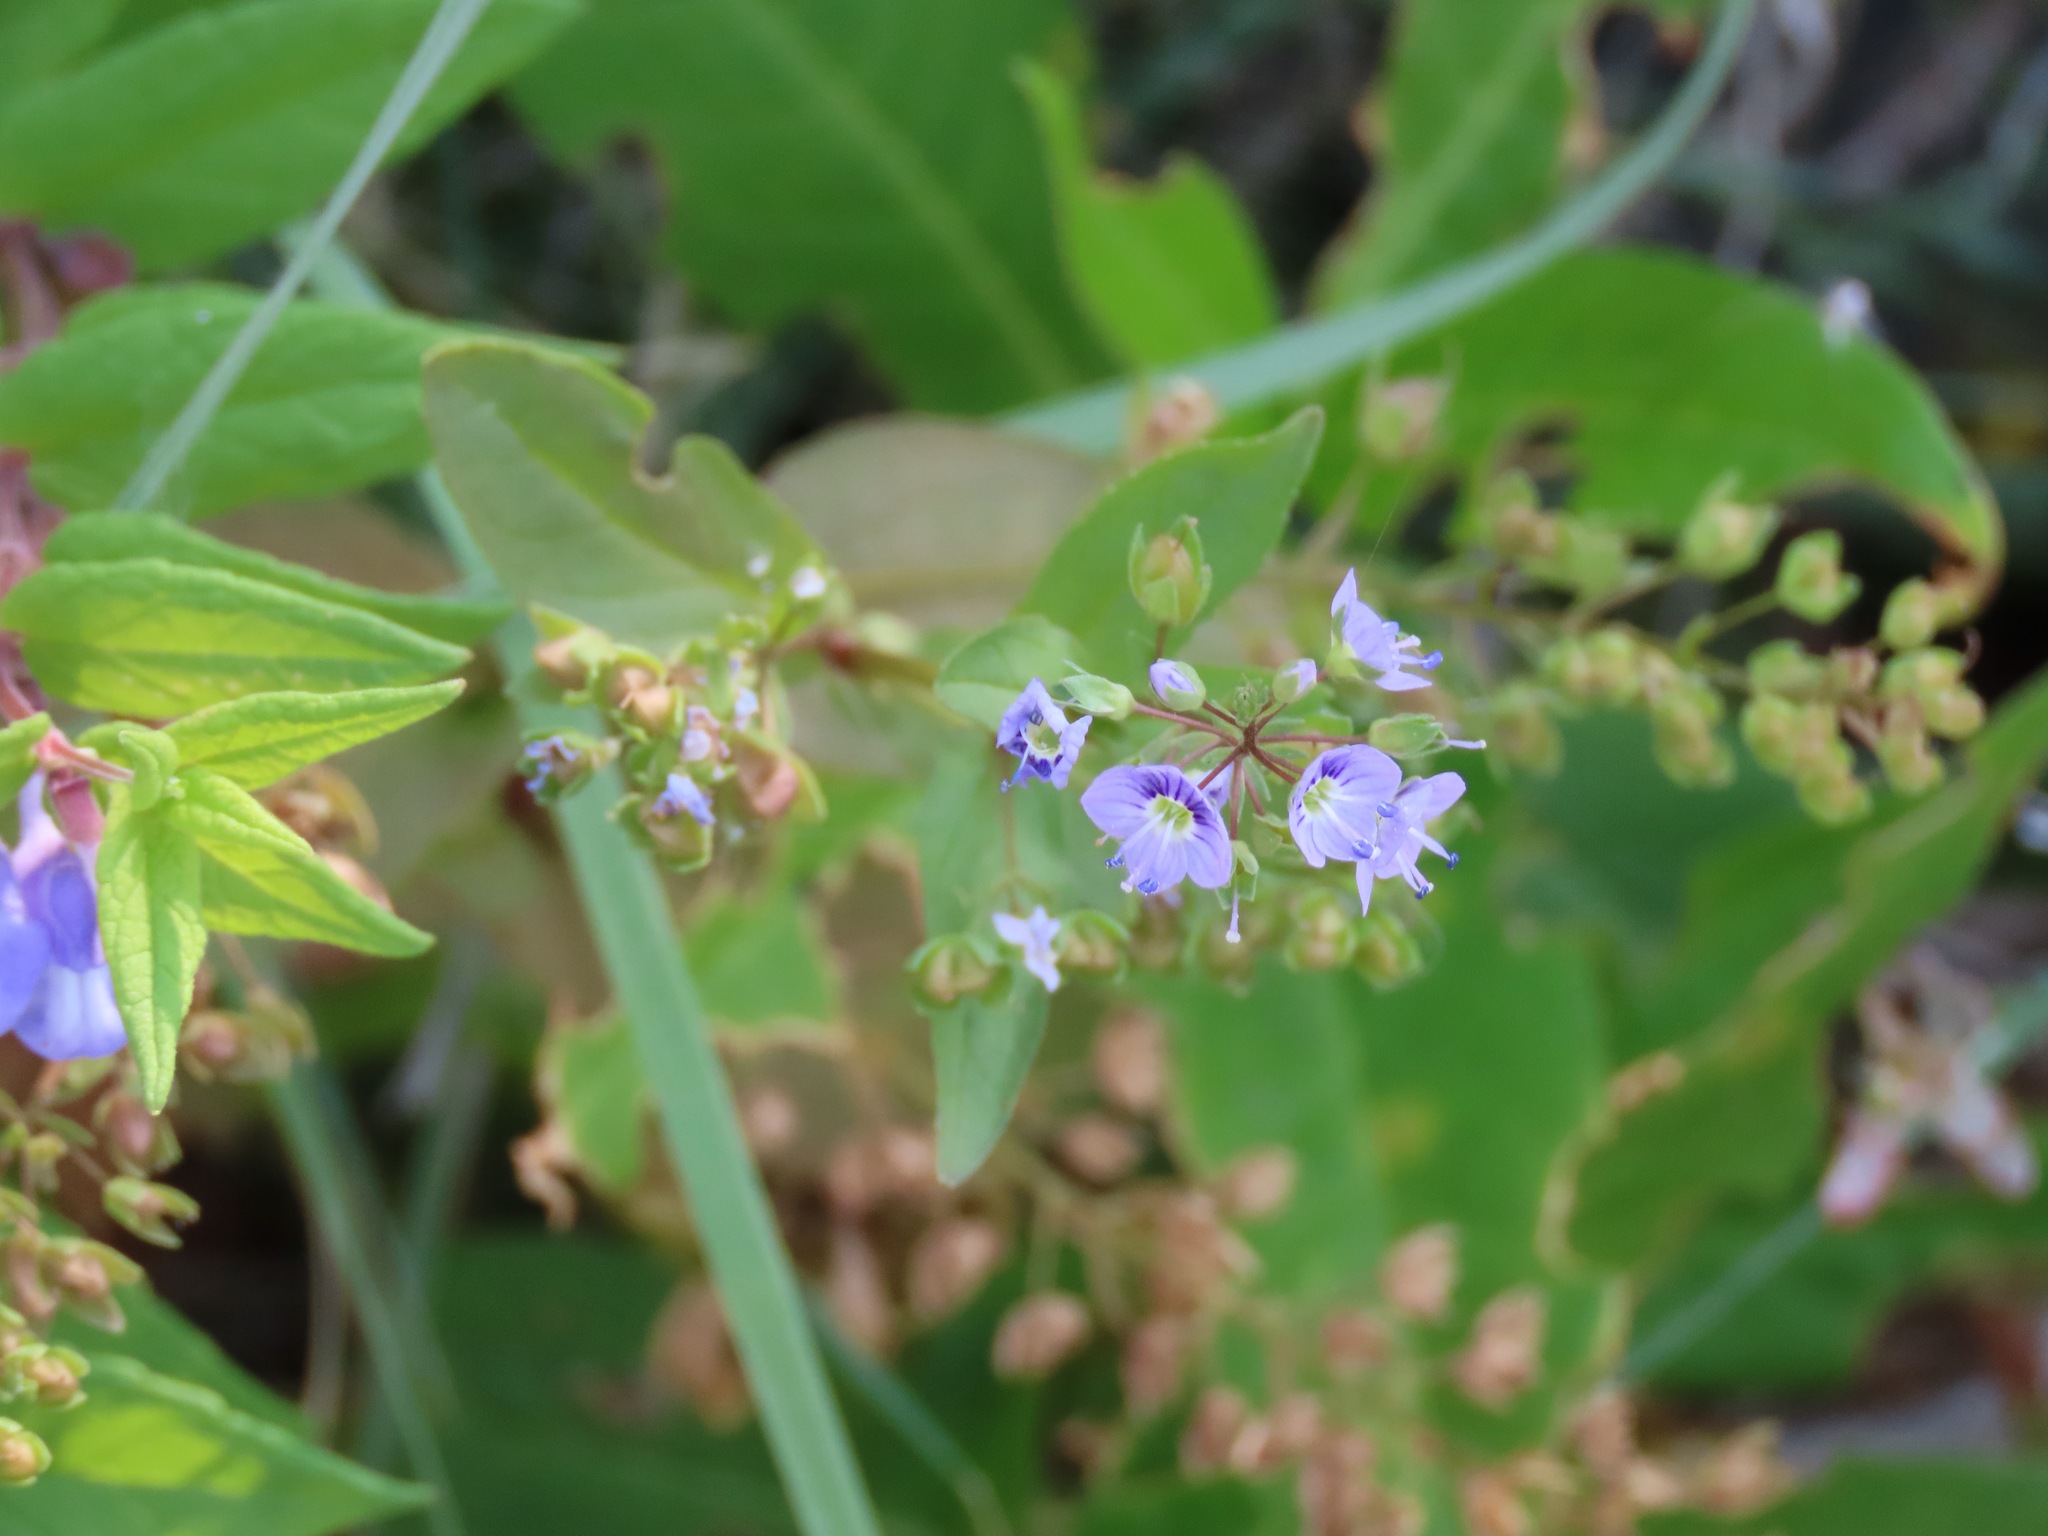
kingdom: Plantae
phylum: Tracheophyta
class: Magnoliopsida
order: Lamiales
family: Plantaginaceae
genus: Veronica
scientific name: Veronica anagallis-aquatica
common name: Water speedwell
